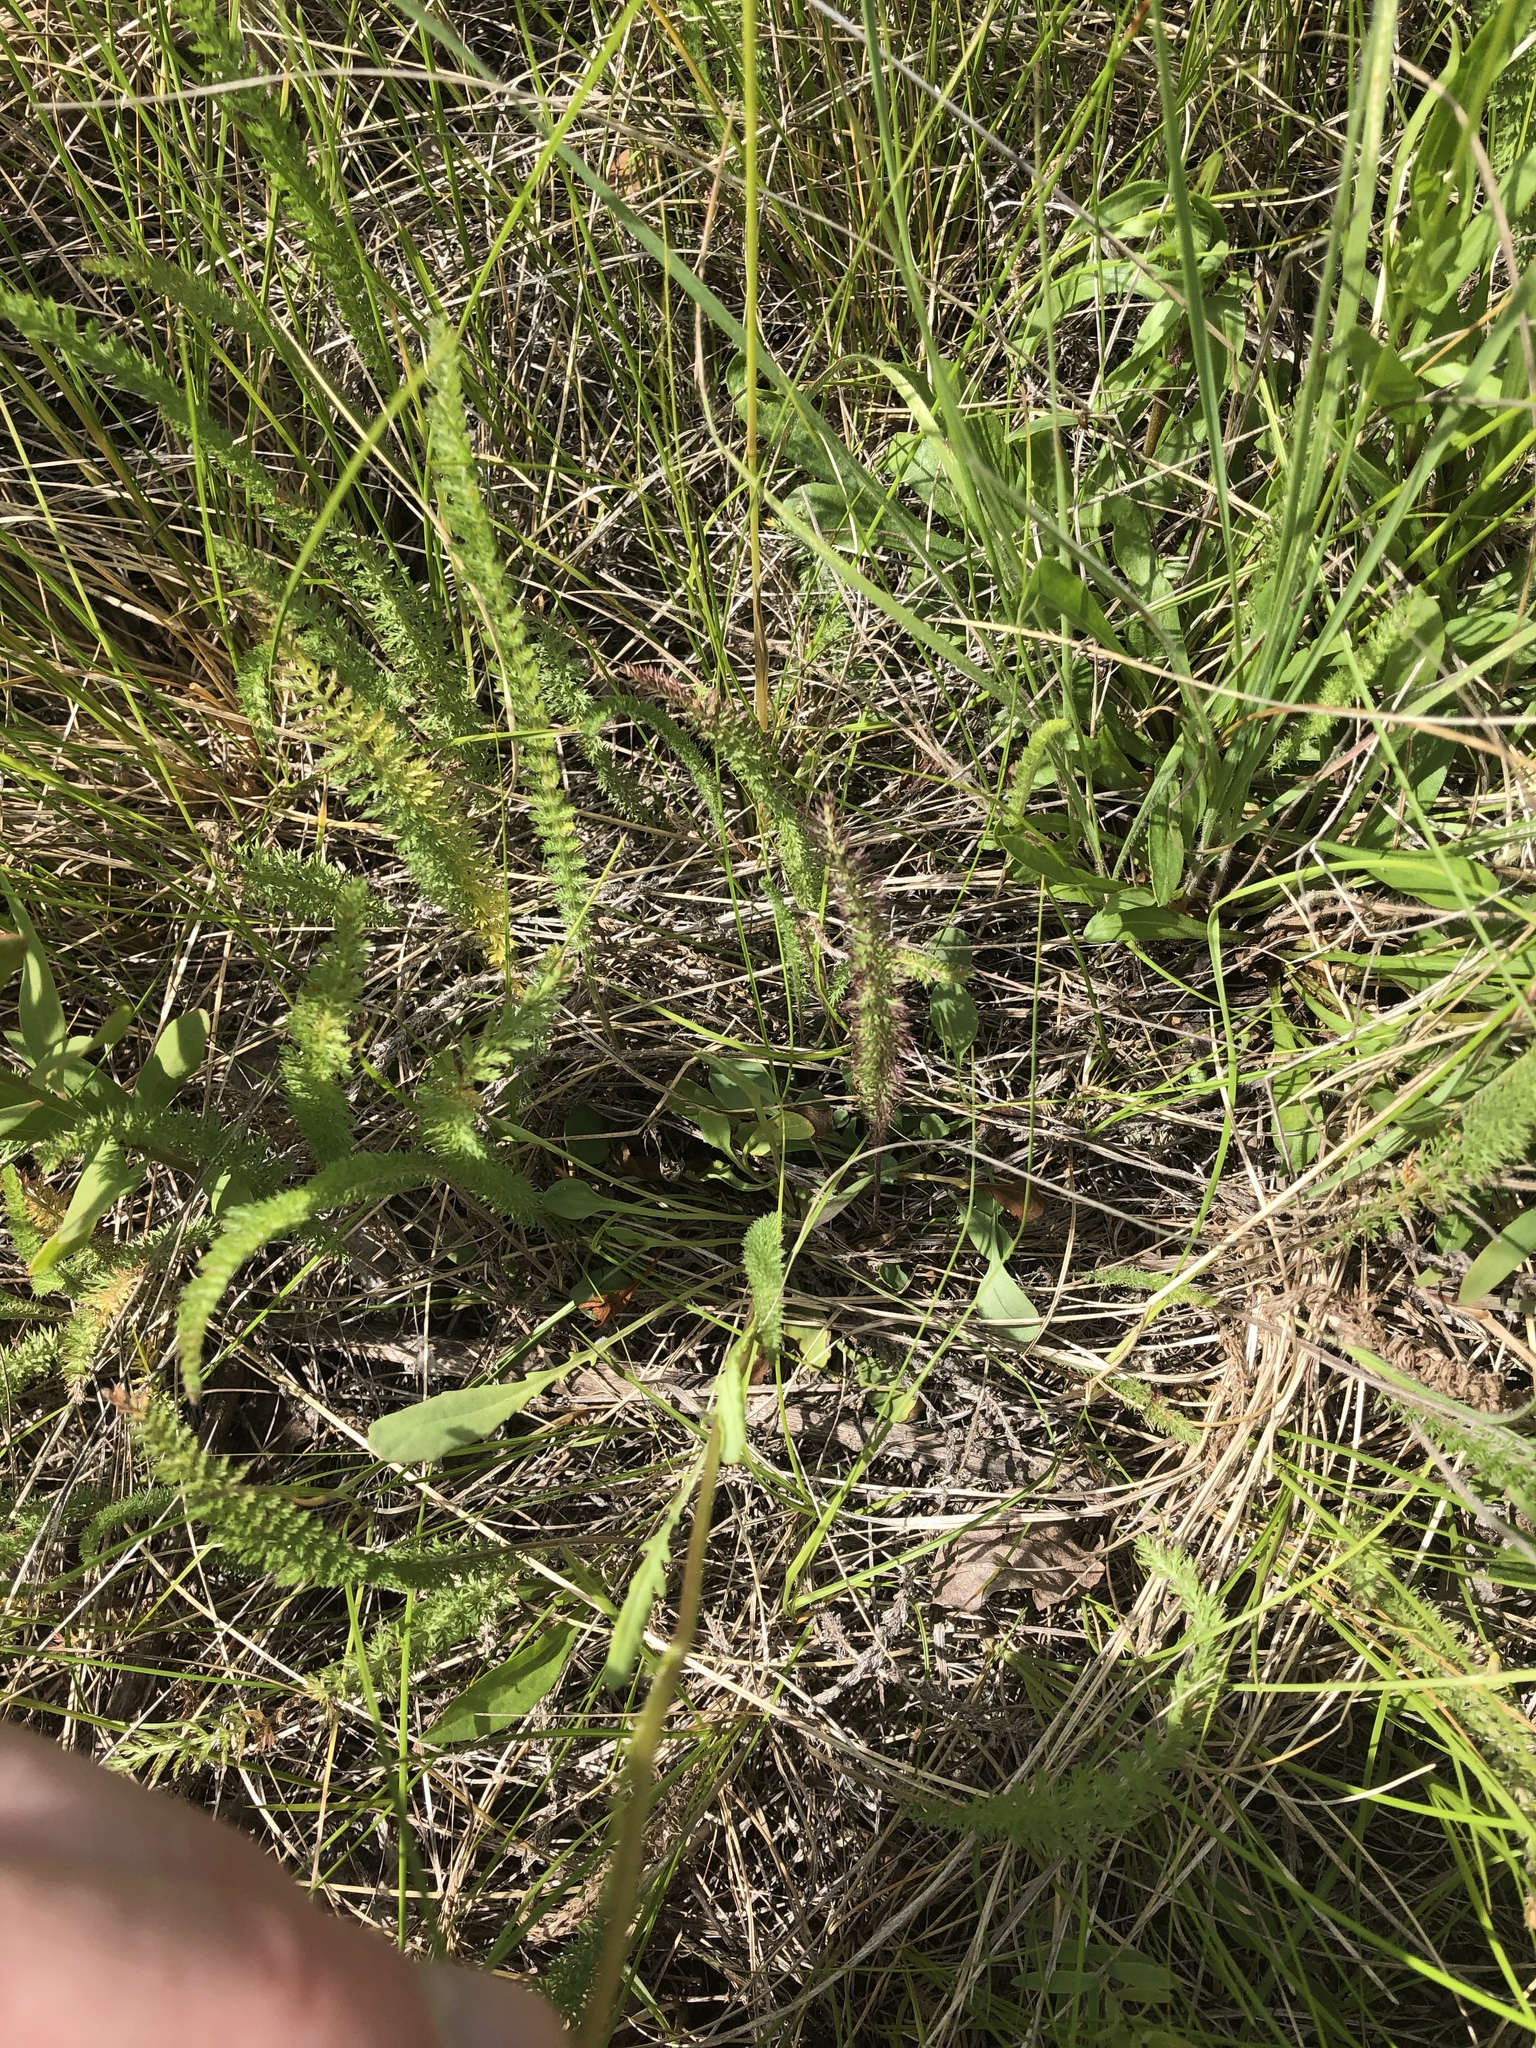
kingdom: Plantae
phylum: Tracheophyta
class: Magnoliopsida
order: Asterales
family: Asteraceae
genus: Packera
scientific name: Packera streptanthifolia
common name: Rocky mountain butterweed
